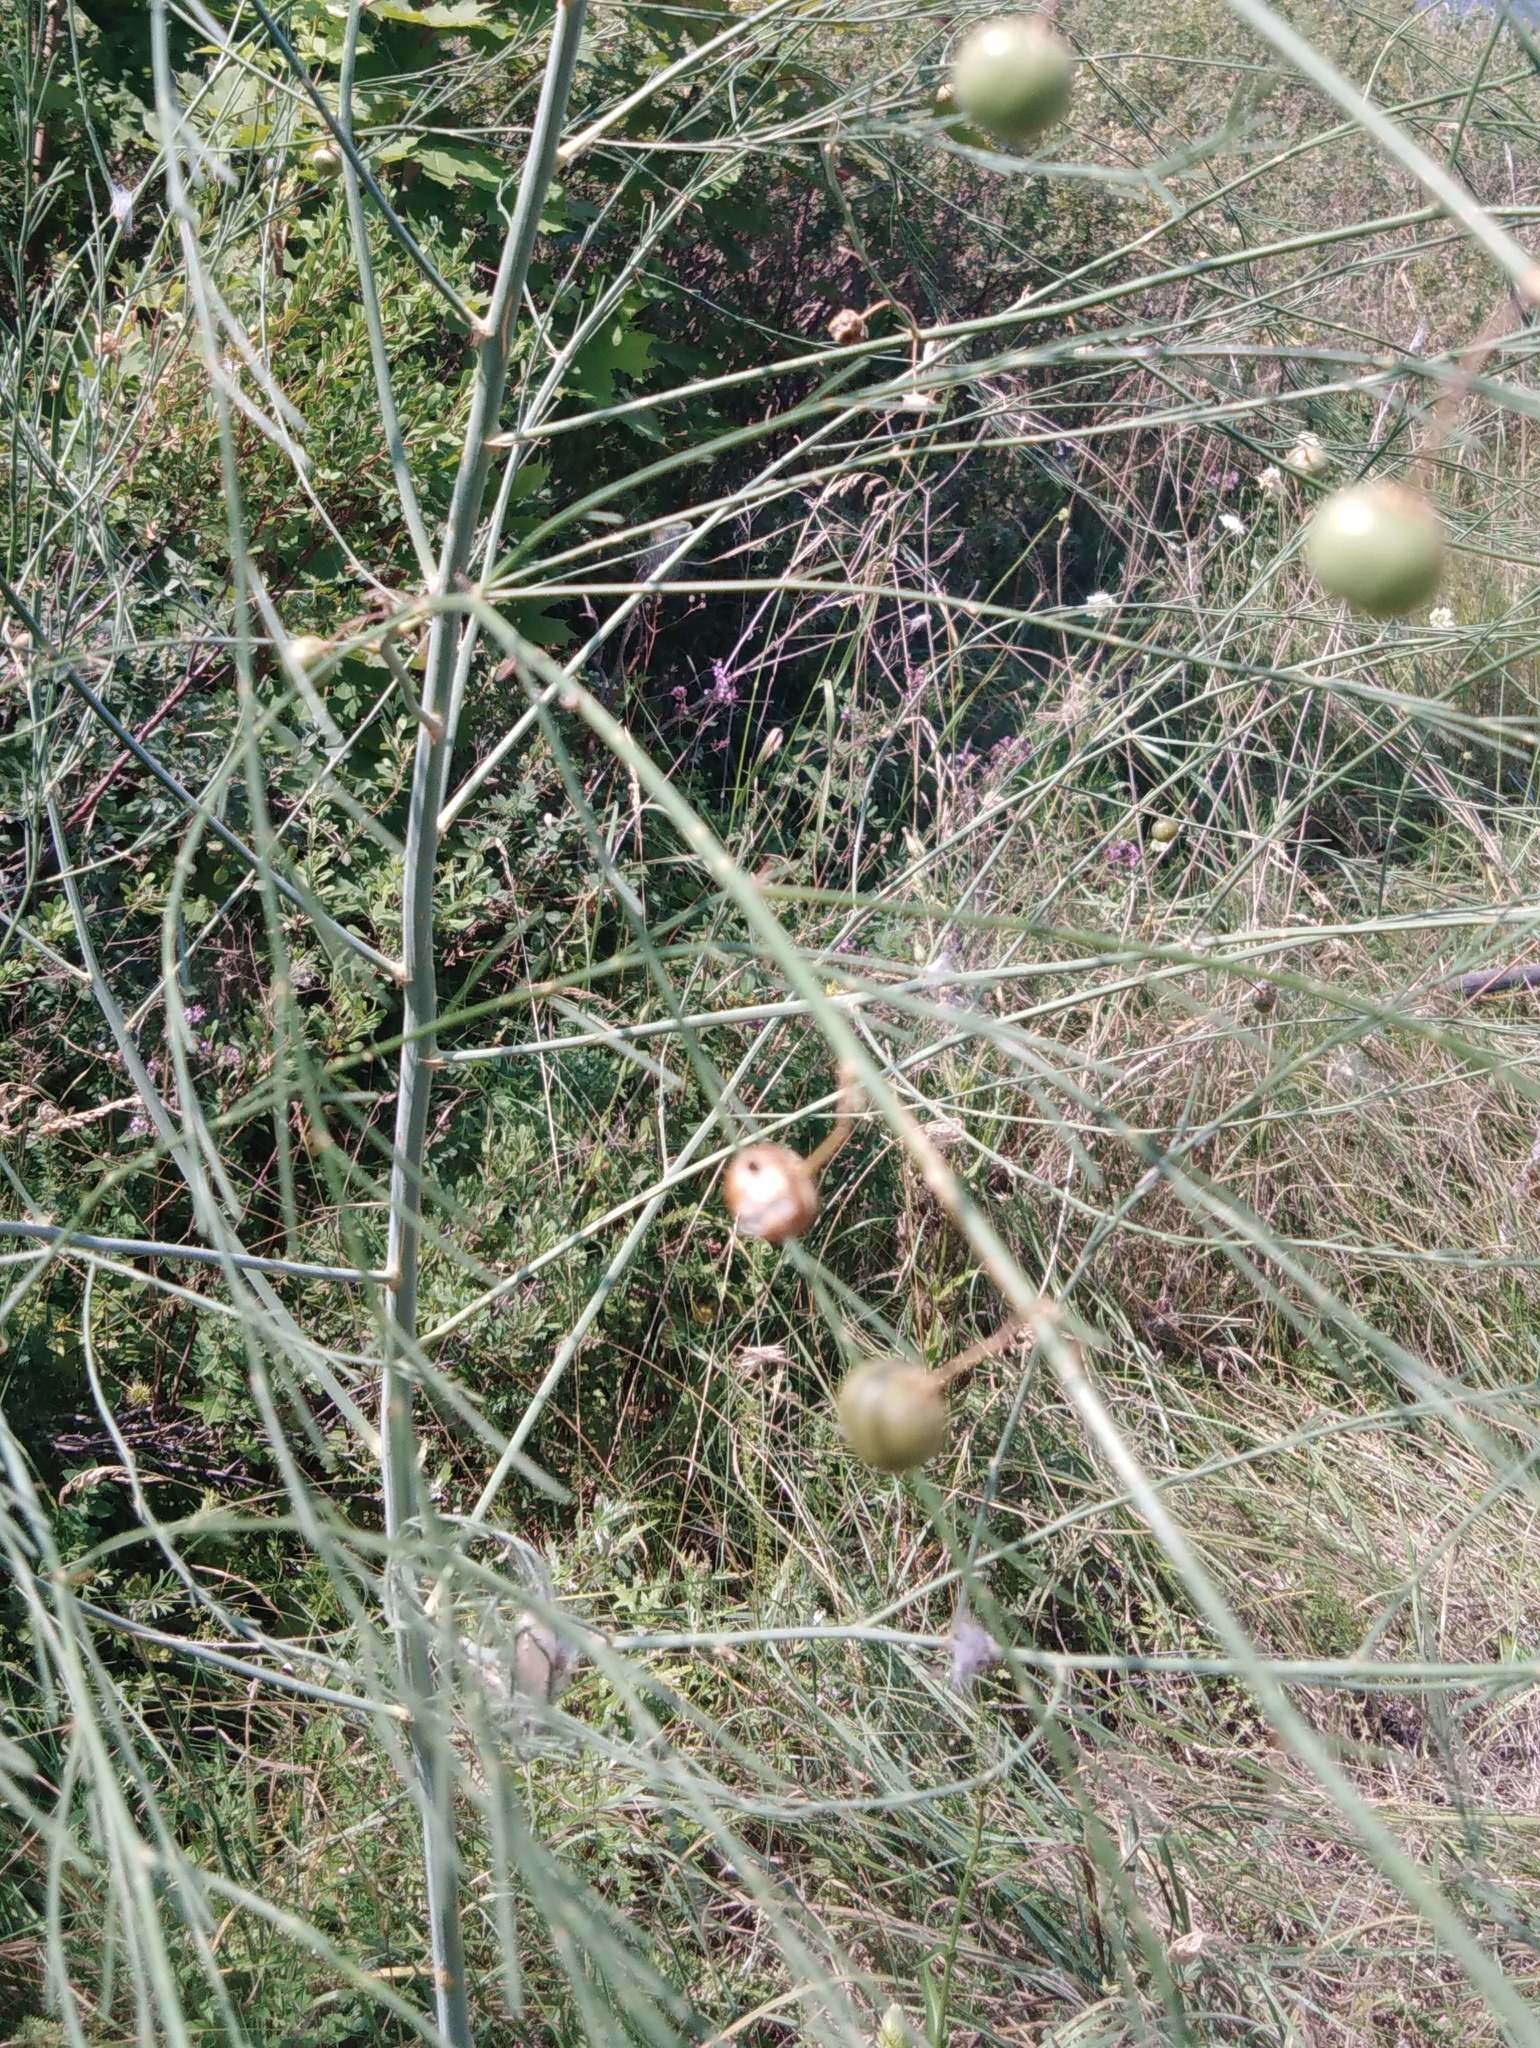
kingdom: Plantae
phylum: Tracheophyta
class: Liliopsida
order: Asparagales
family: Asparagaceae
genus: Asparagus
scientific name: Asparagus officinalis
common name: Garden asparagus
